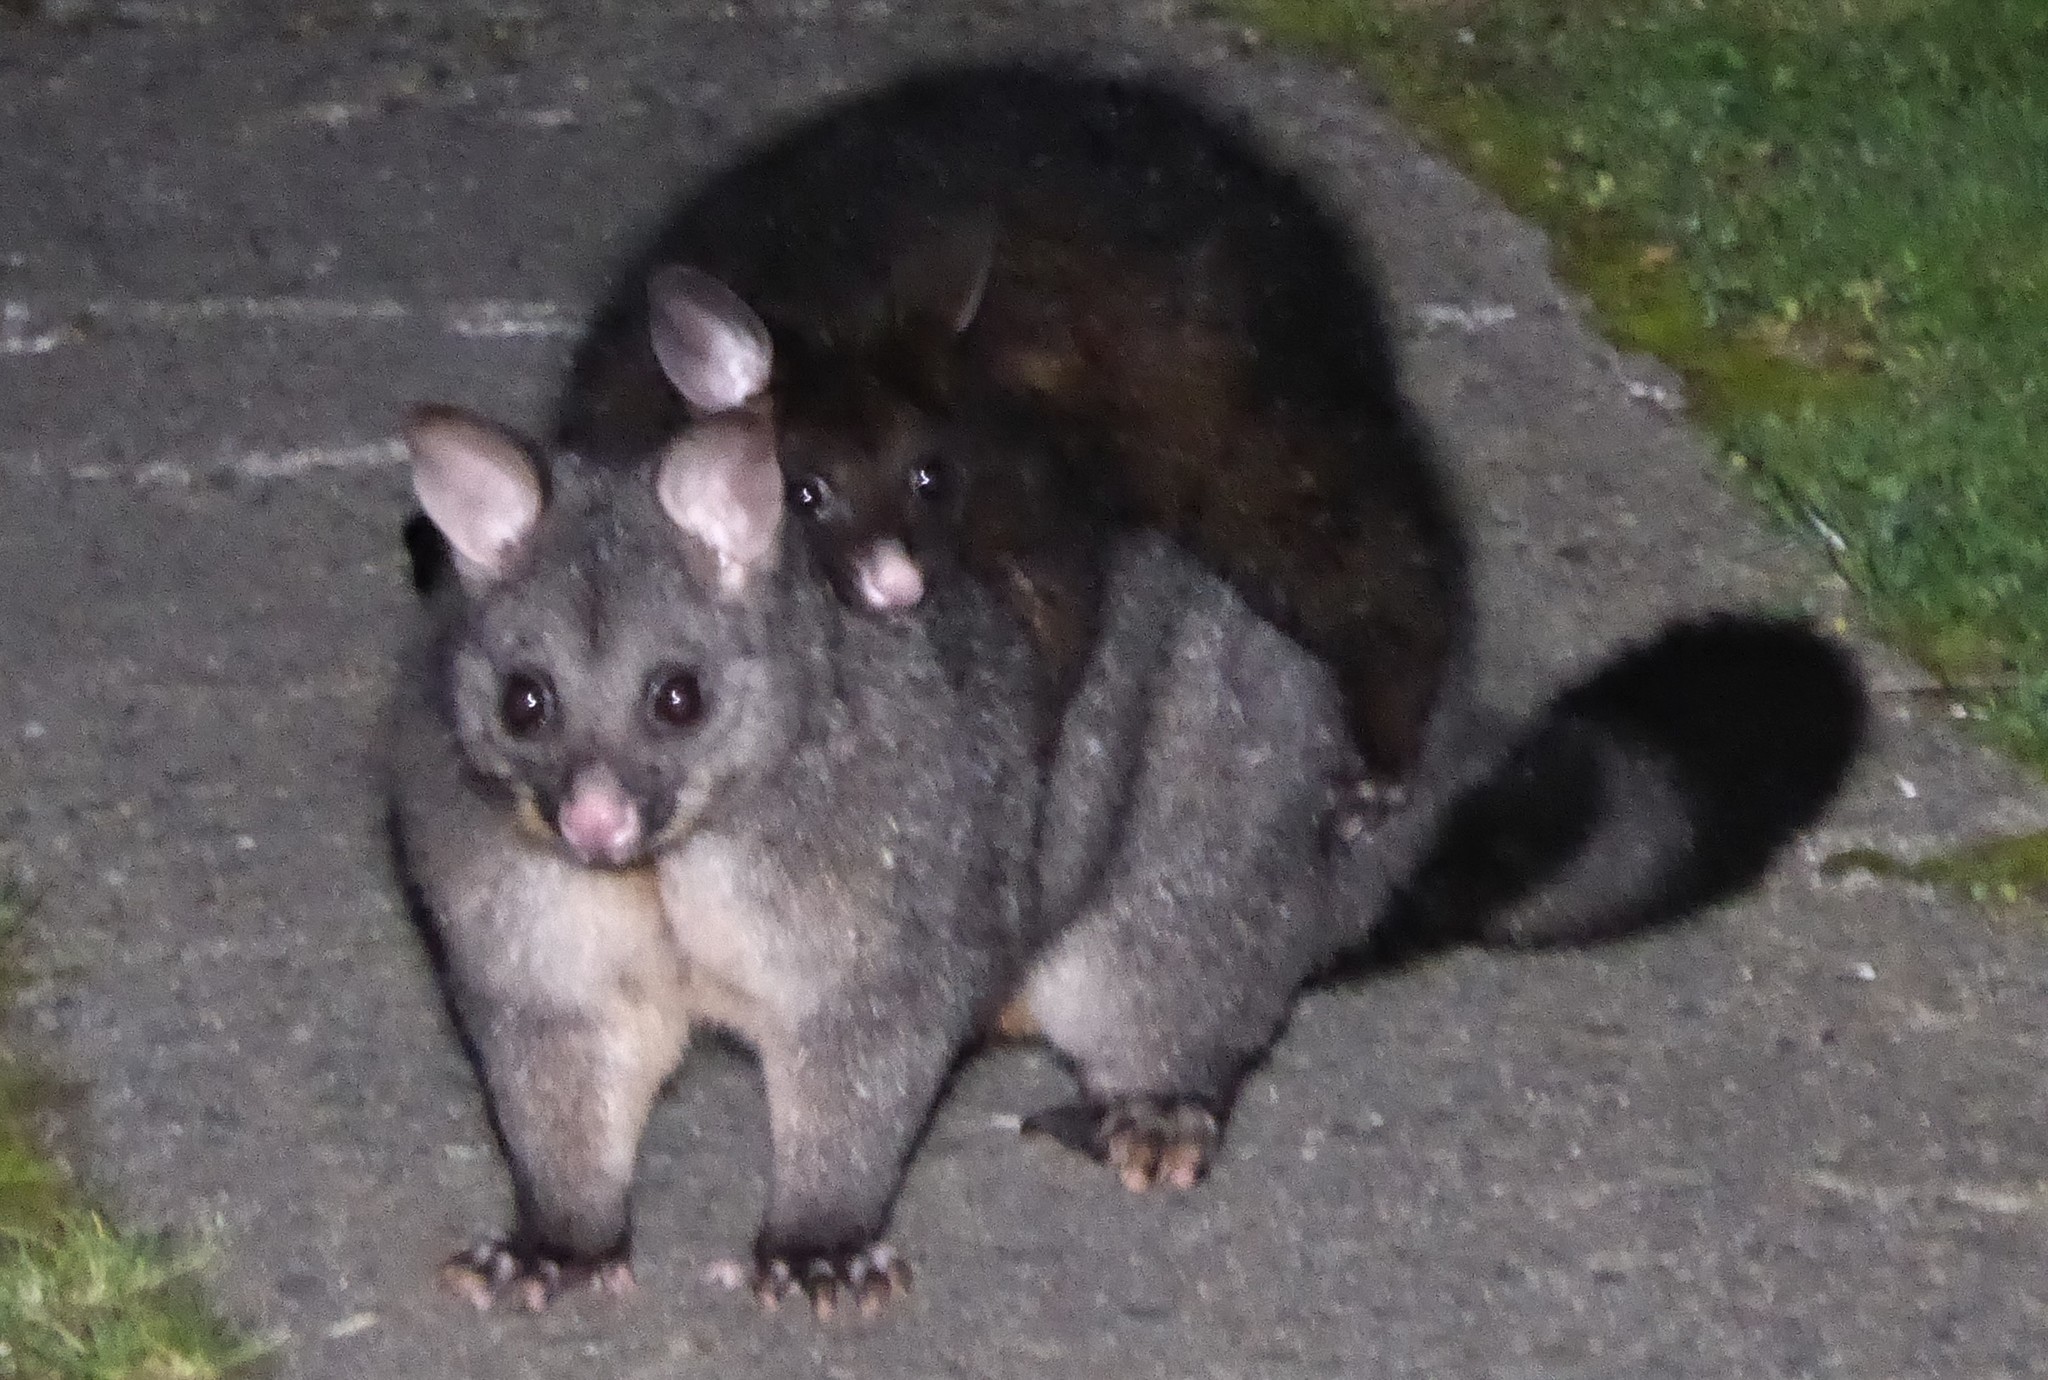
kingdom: Animalia
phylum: Chordata
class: Mammalia
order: Diprotodontia
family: Phalangeridae
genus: Trichosurus
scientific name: Trichosurus vulpecula
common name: Common brushtail
